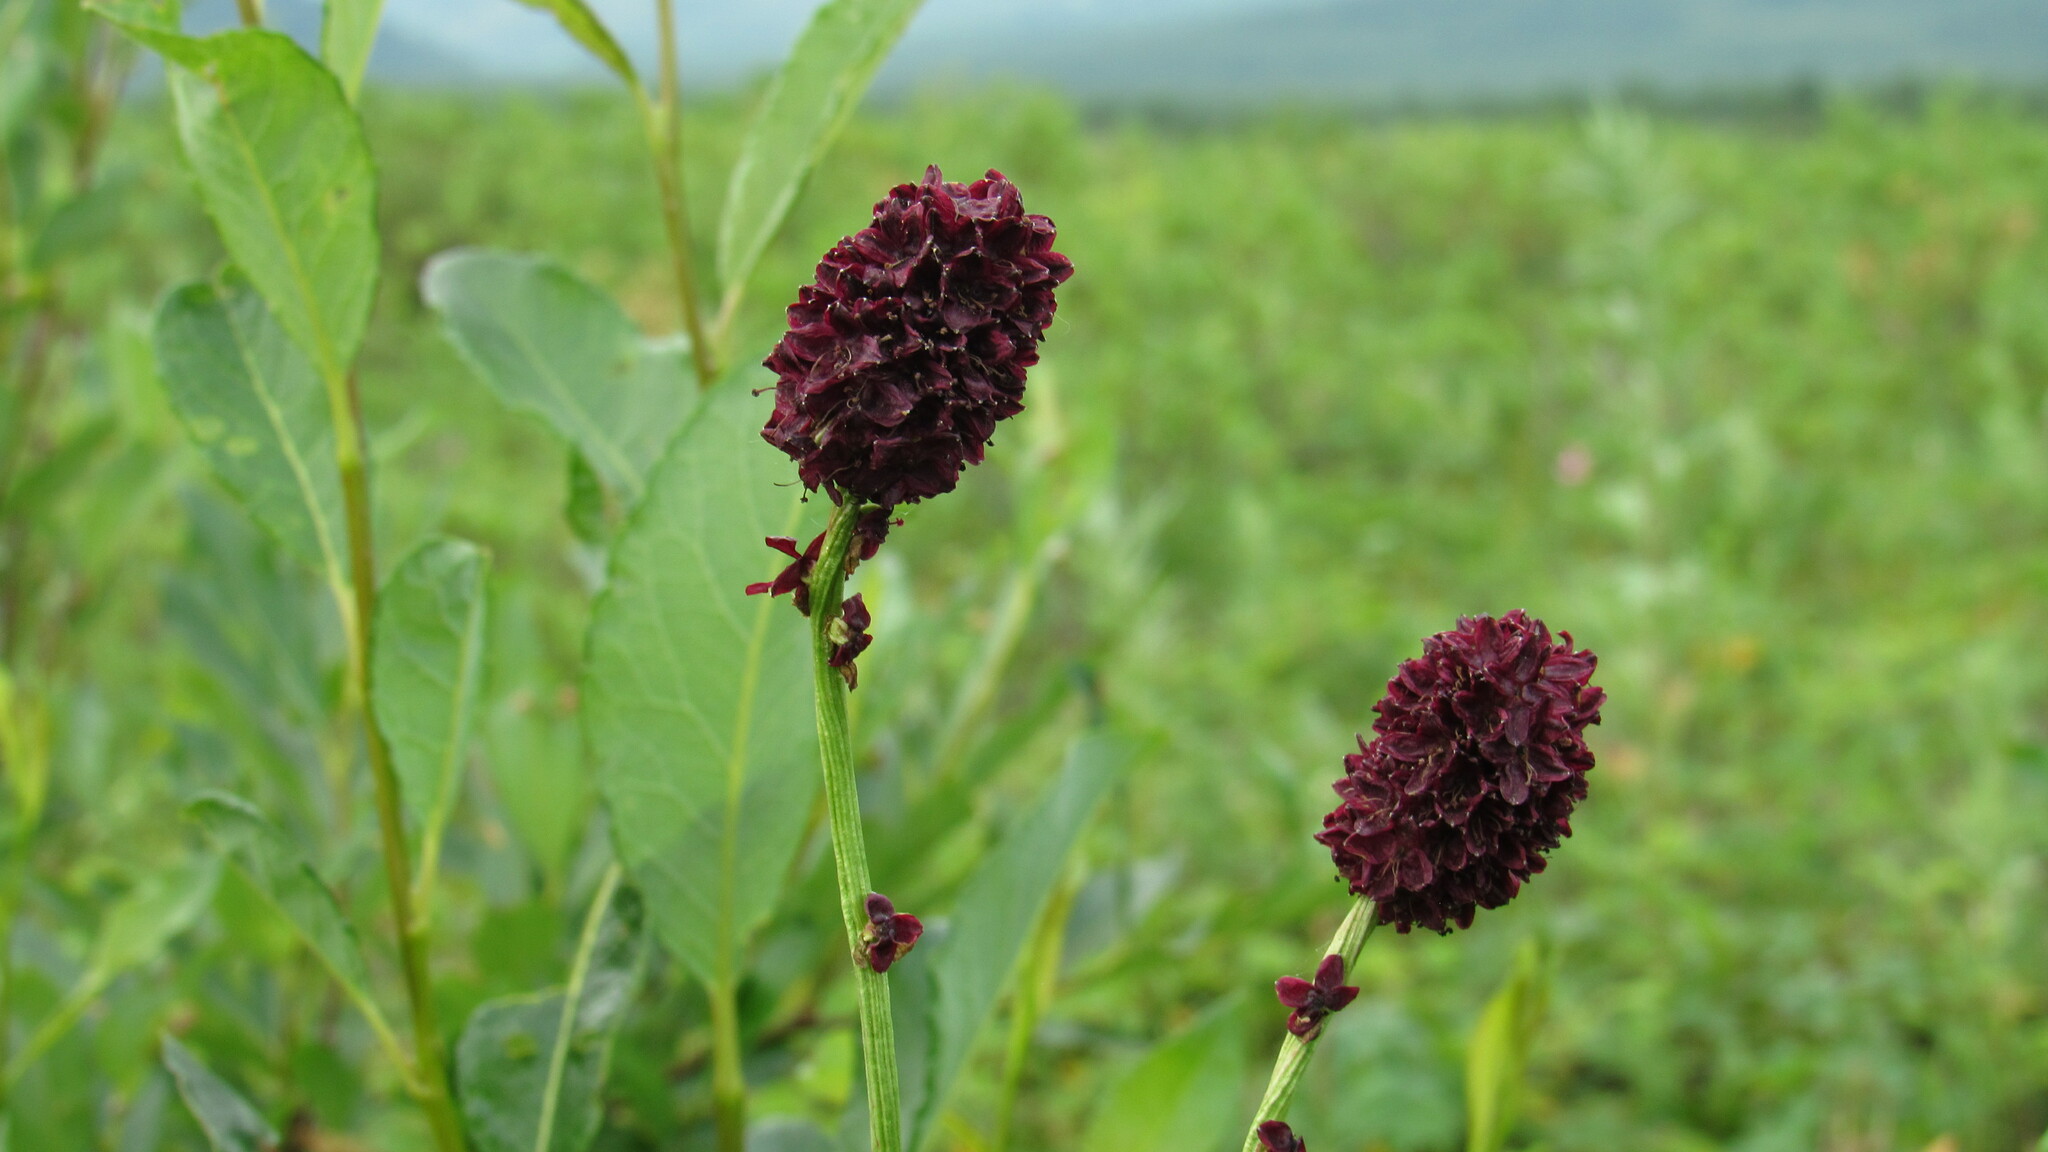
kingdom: Plantae
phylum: Tracheophyta
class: Magnoliopsida
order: Rosales
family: Rosaceae
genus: Sanguisorba
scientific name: Sanguisorba officinalis
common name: Great burnet
